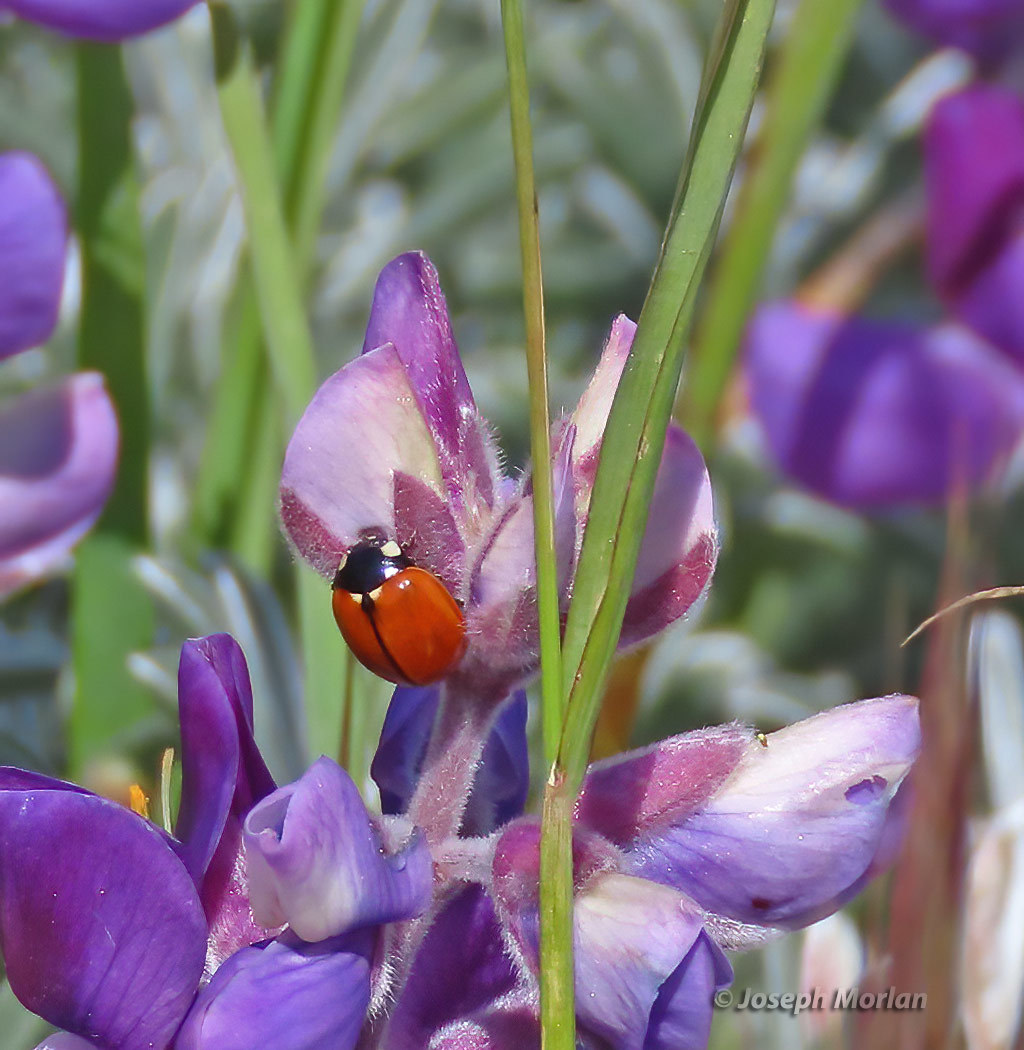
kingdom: Animalia
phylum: Arthropoda
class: Insecta
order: Coleoptera
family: Coccinellidae
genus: Coccinella
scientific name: Coccinella californica
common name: Lady beetle
